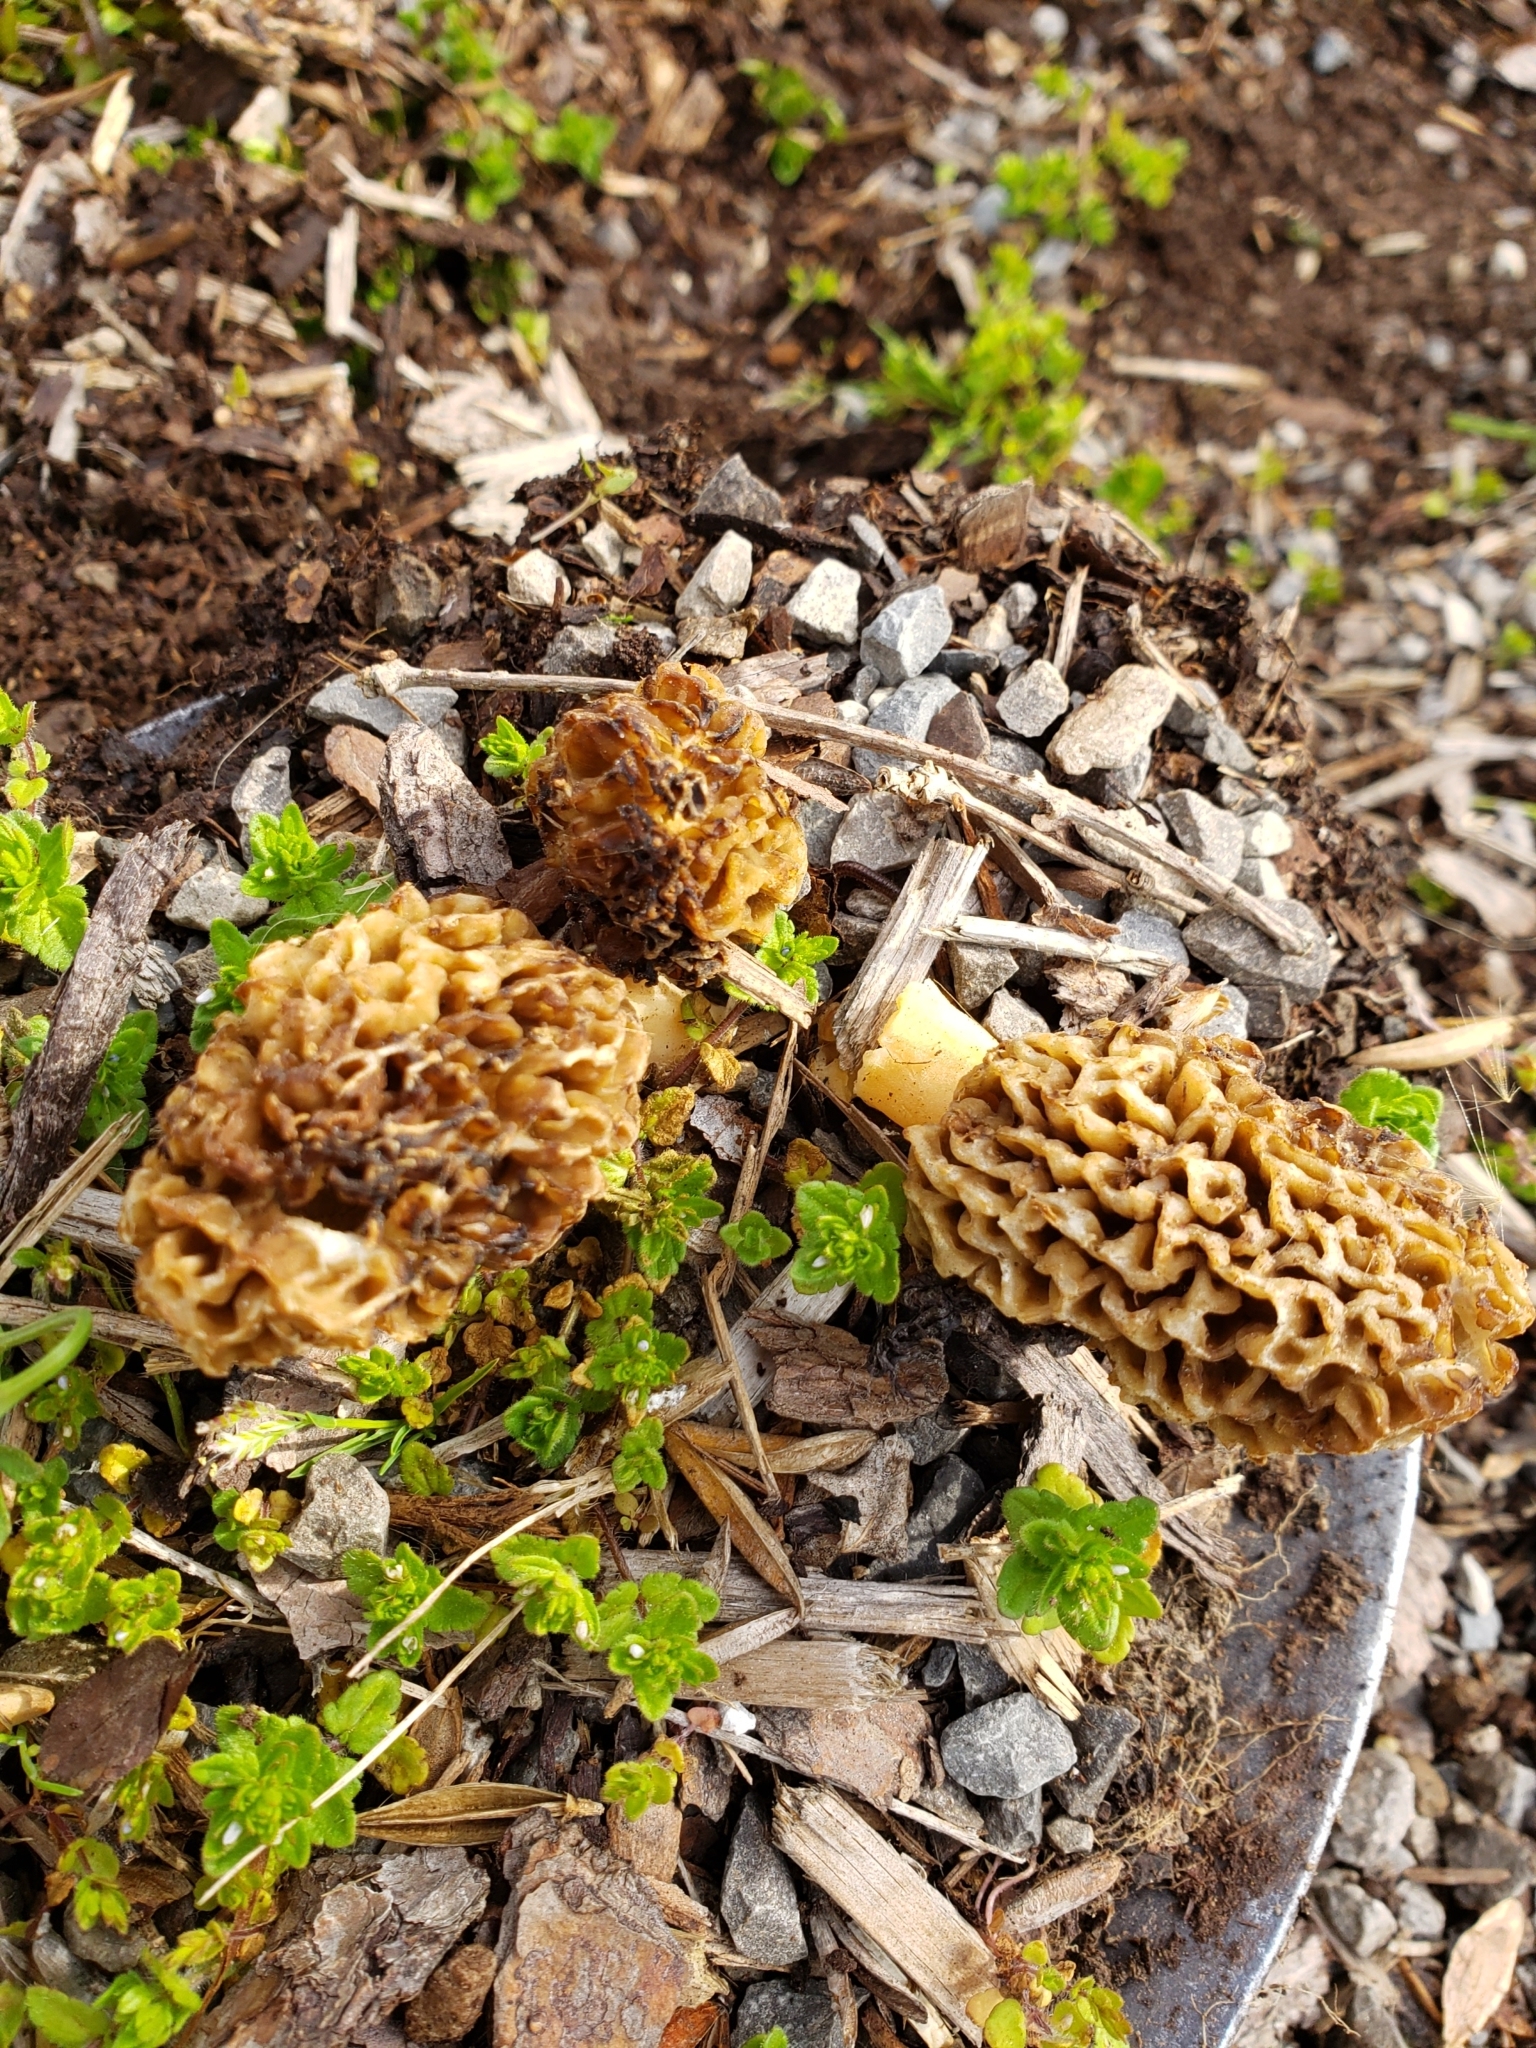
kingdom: Fungi
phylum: Ascomycota
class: Pezizomycetes
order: Pezizales
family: Morchellaceae
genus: Morchella
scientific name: Morchella americana
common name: White morel
